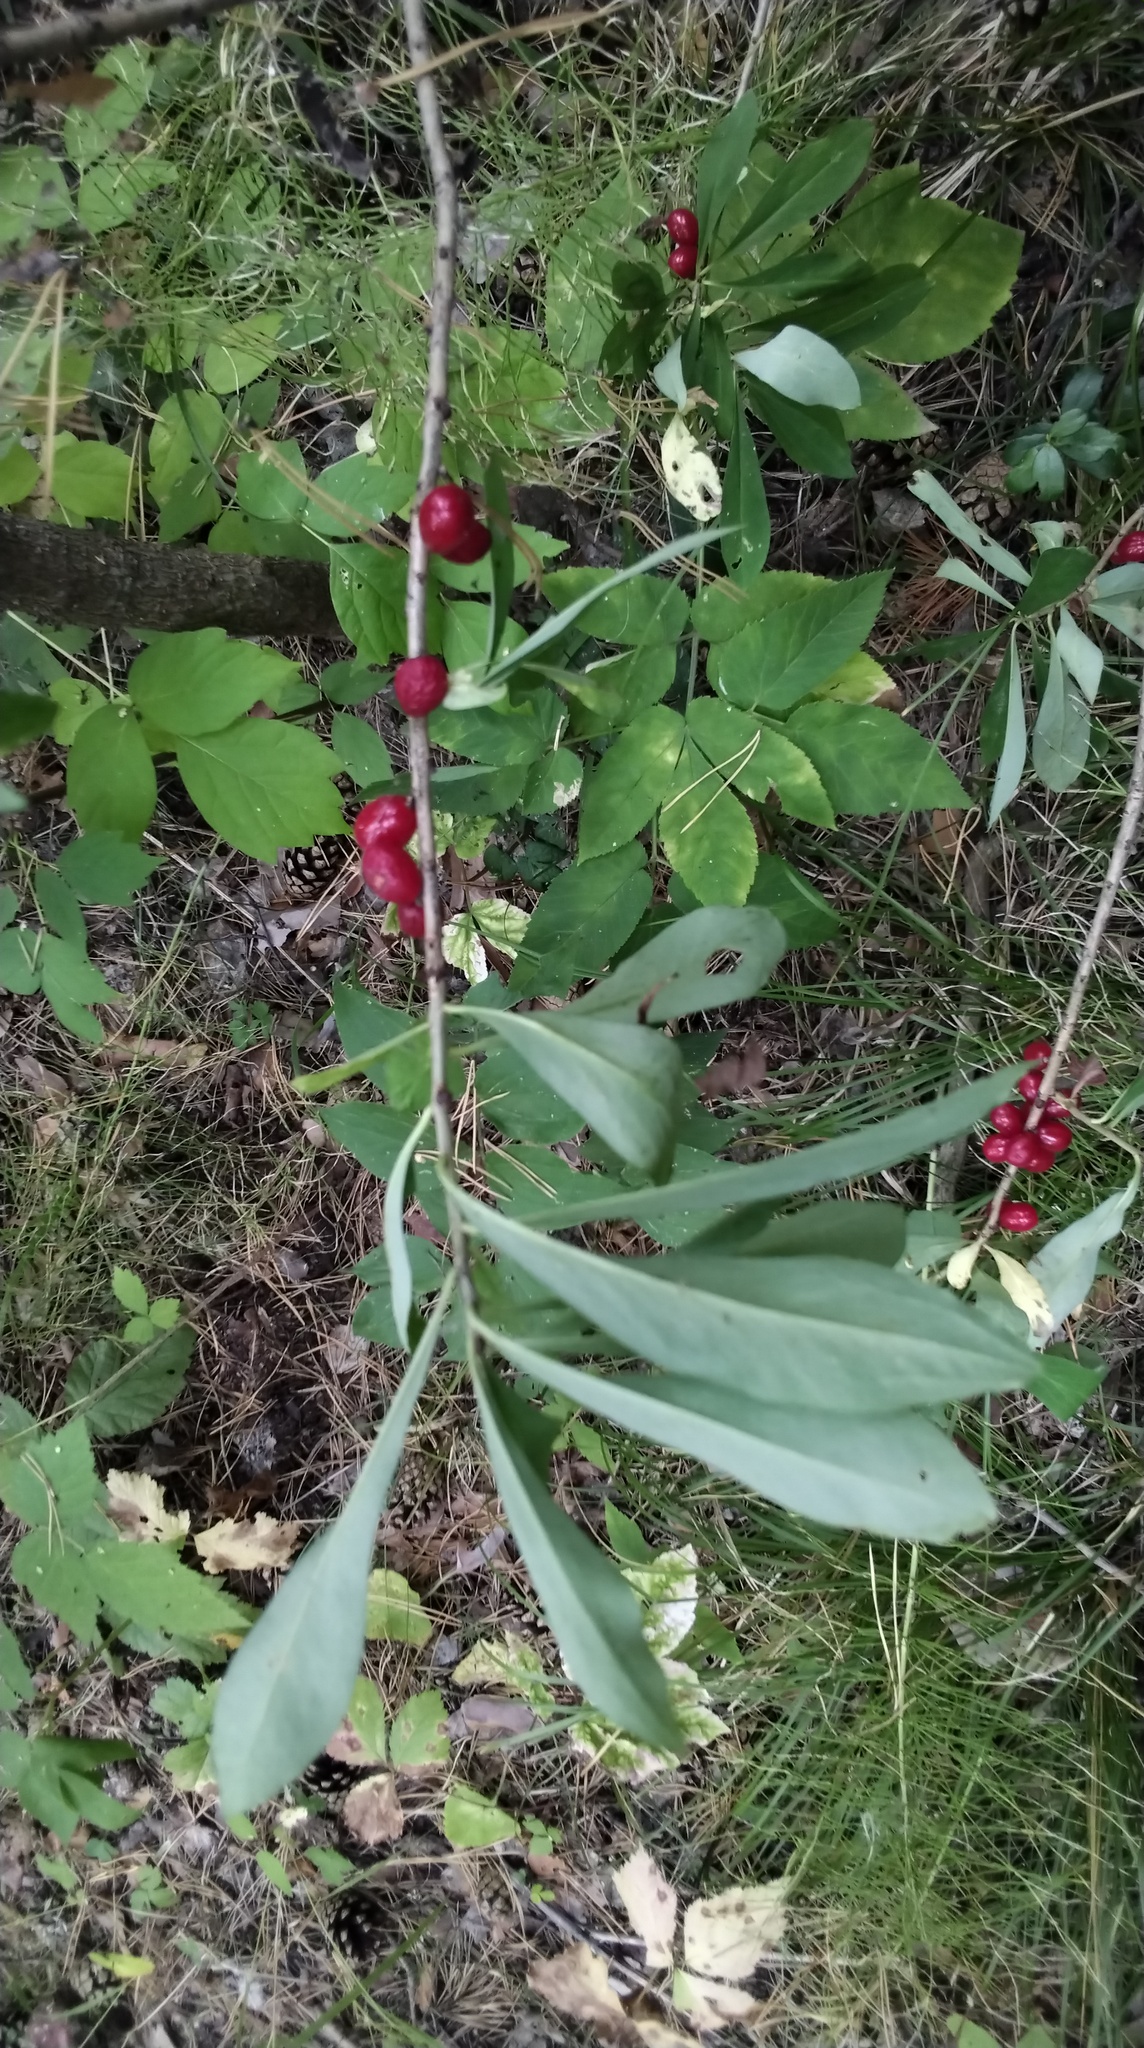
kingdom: Plantae
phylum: Tracheophyta
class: Magnoliopsida
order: Malvales
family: Thymelaeaceae
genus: Daphne
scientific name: Daphne mezereum
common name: Mezereon
